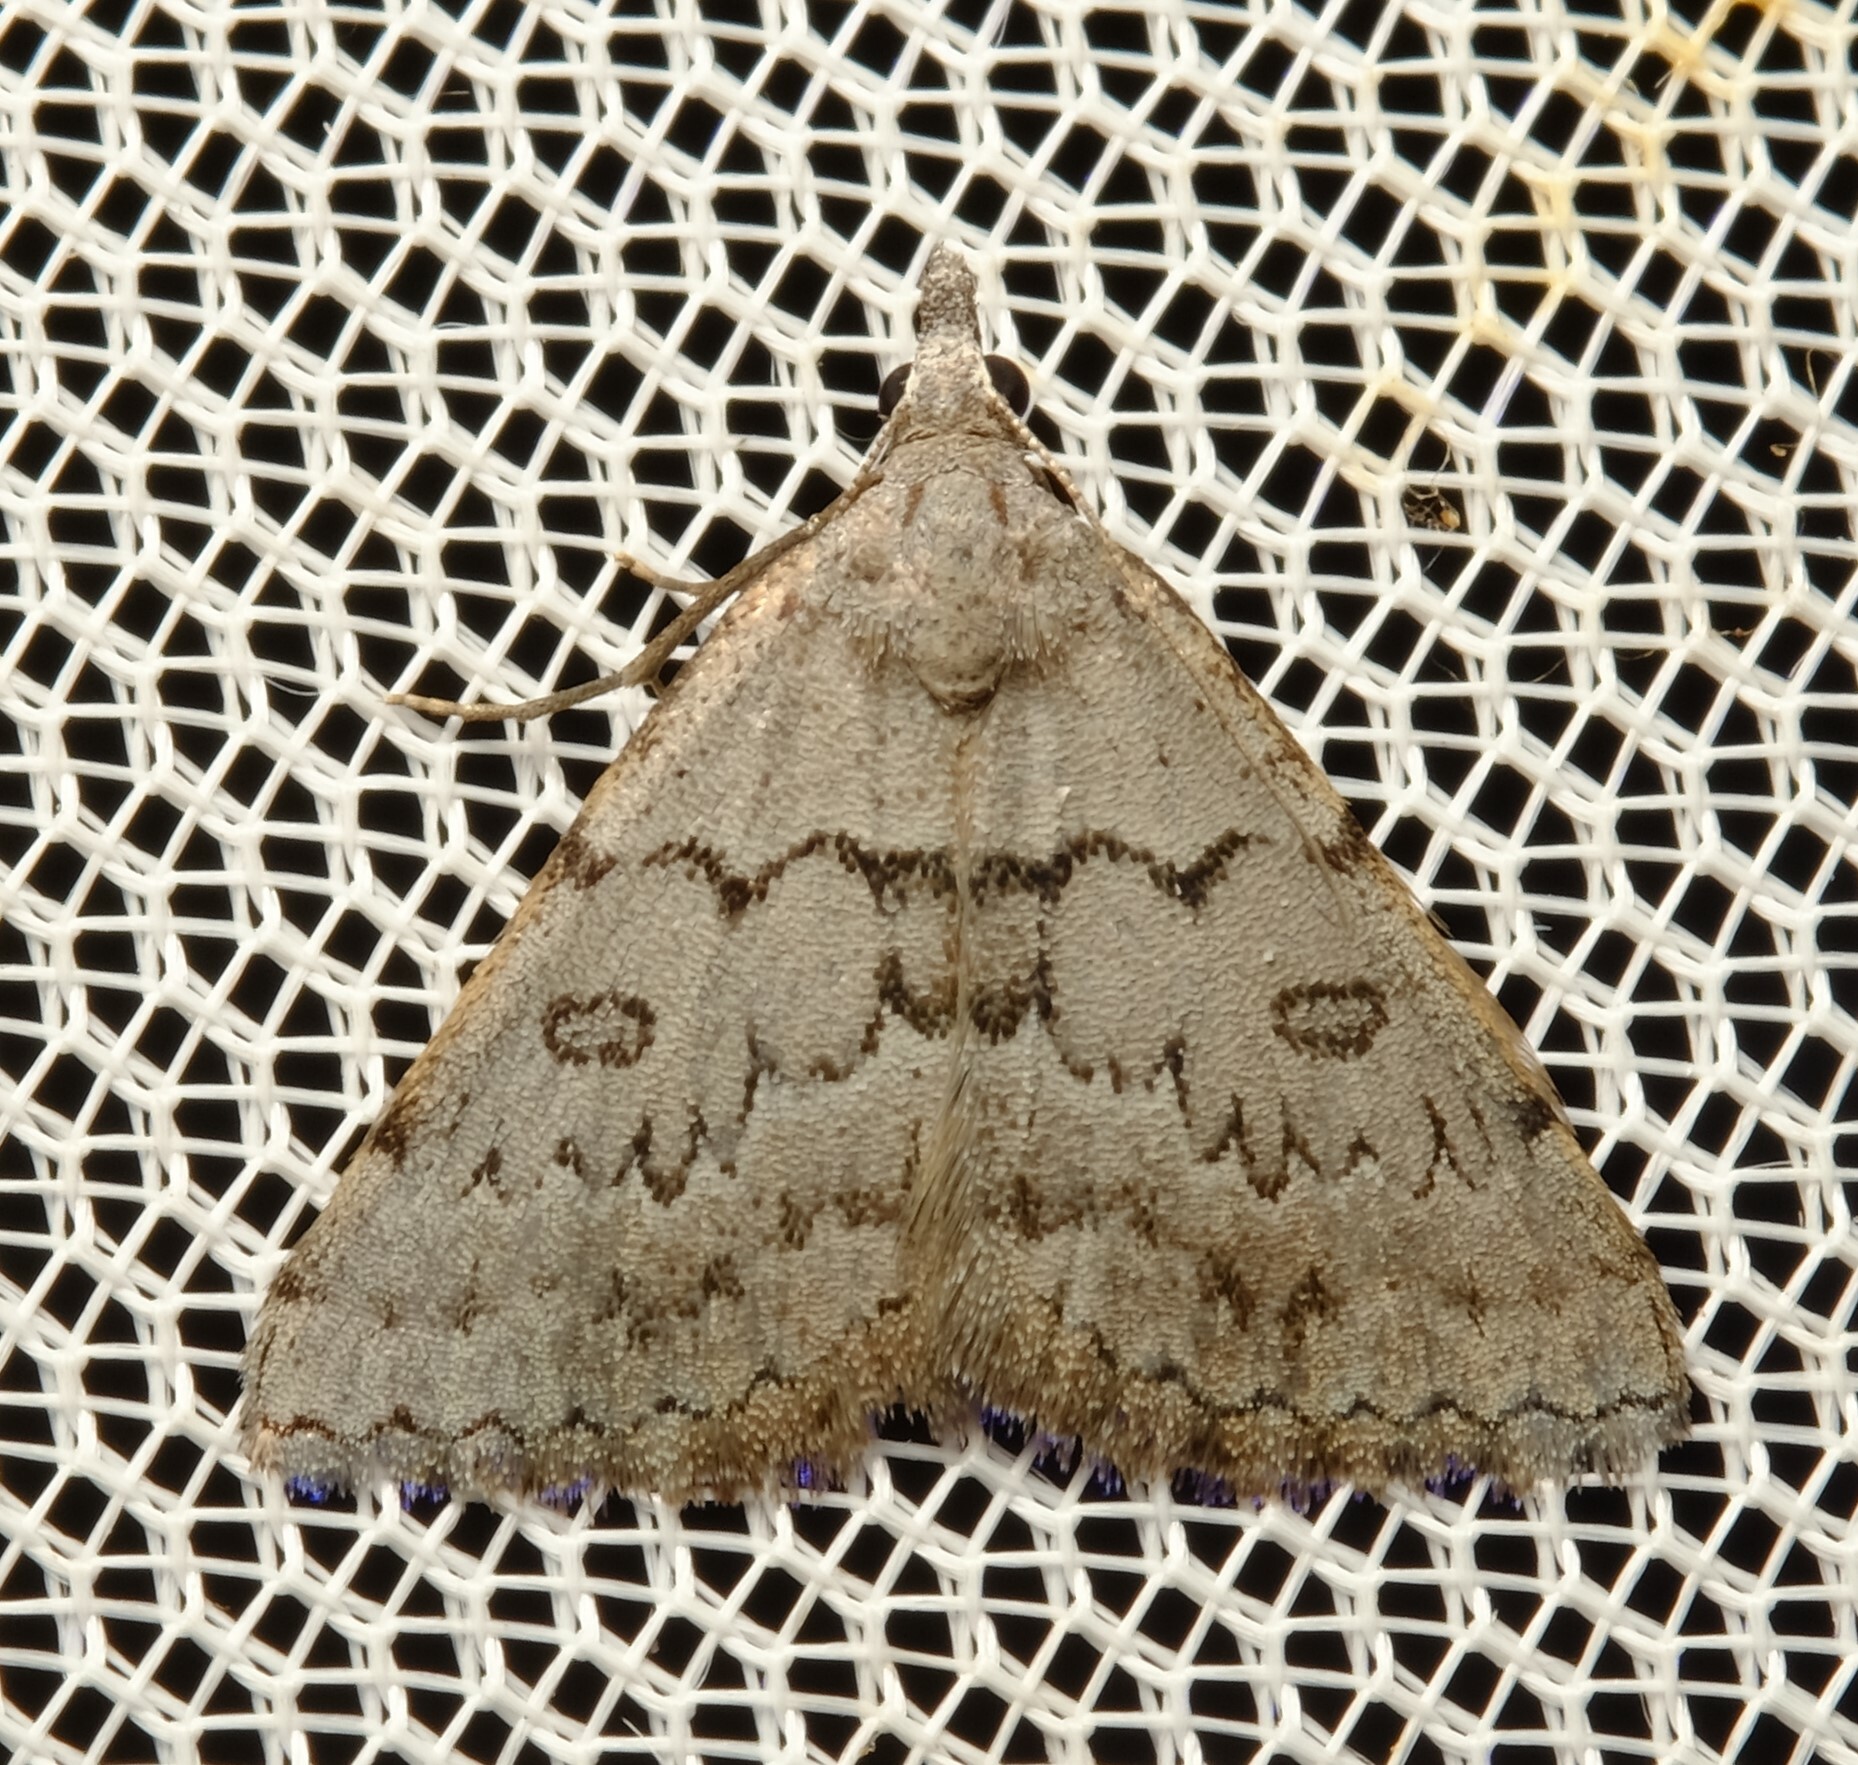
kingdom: Animalia
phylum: Arthropoda
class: Insecta
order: Lepidoptera
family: Geometridae
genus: Dichromodes
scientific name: Dichromodes indicataria
